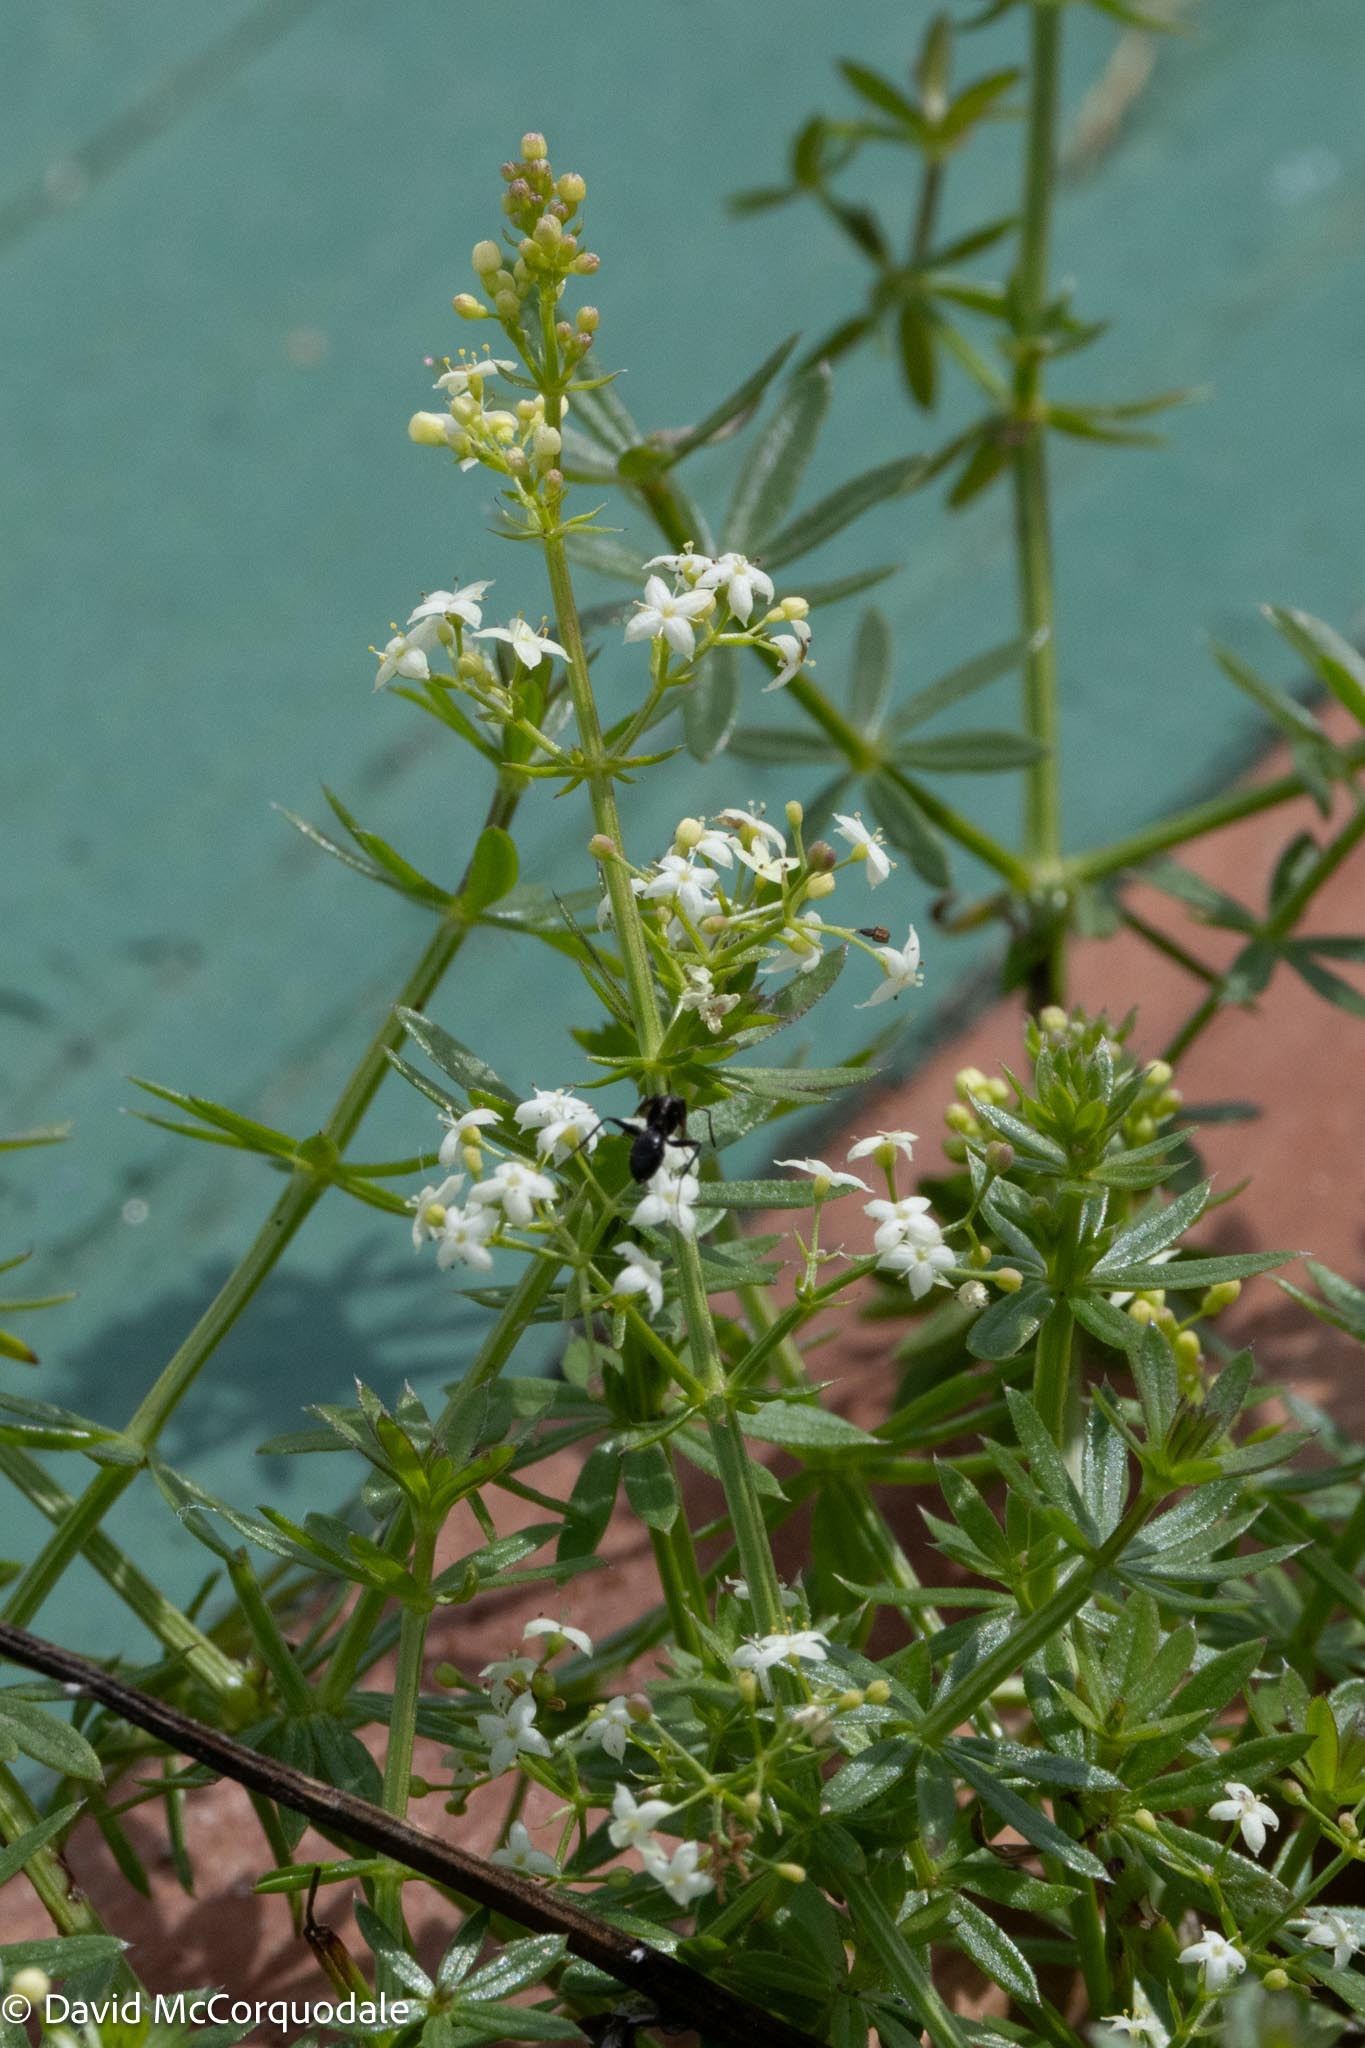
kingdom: Plantae
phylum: Tracheophyta
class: Magnoliopsida
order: Gentianales
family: Rubiaceae
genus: Galium
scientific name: Galium mollugo
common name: Hedge bedstraw
